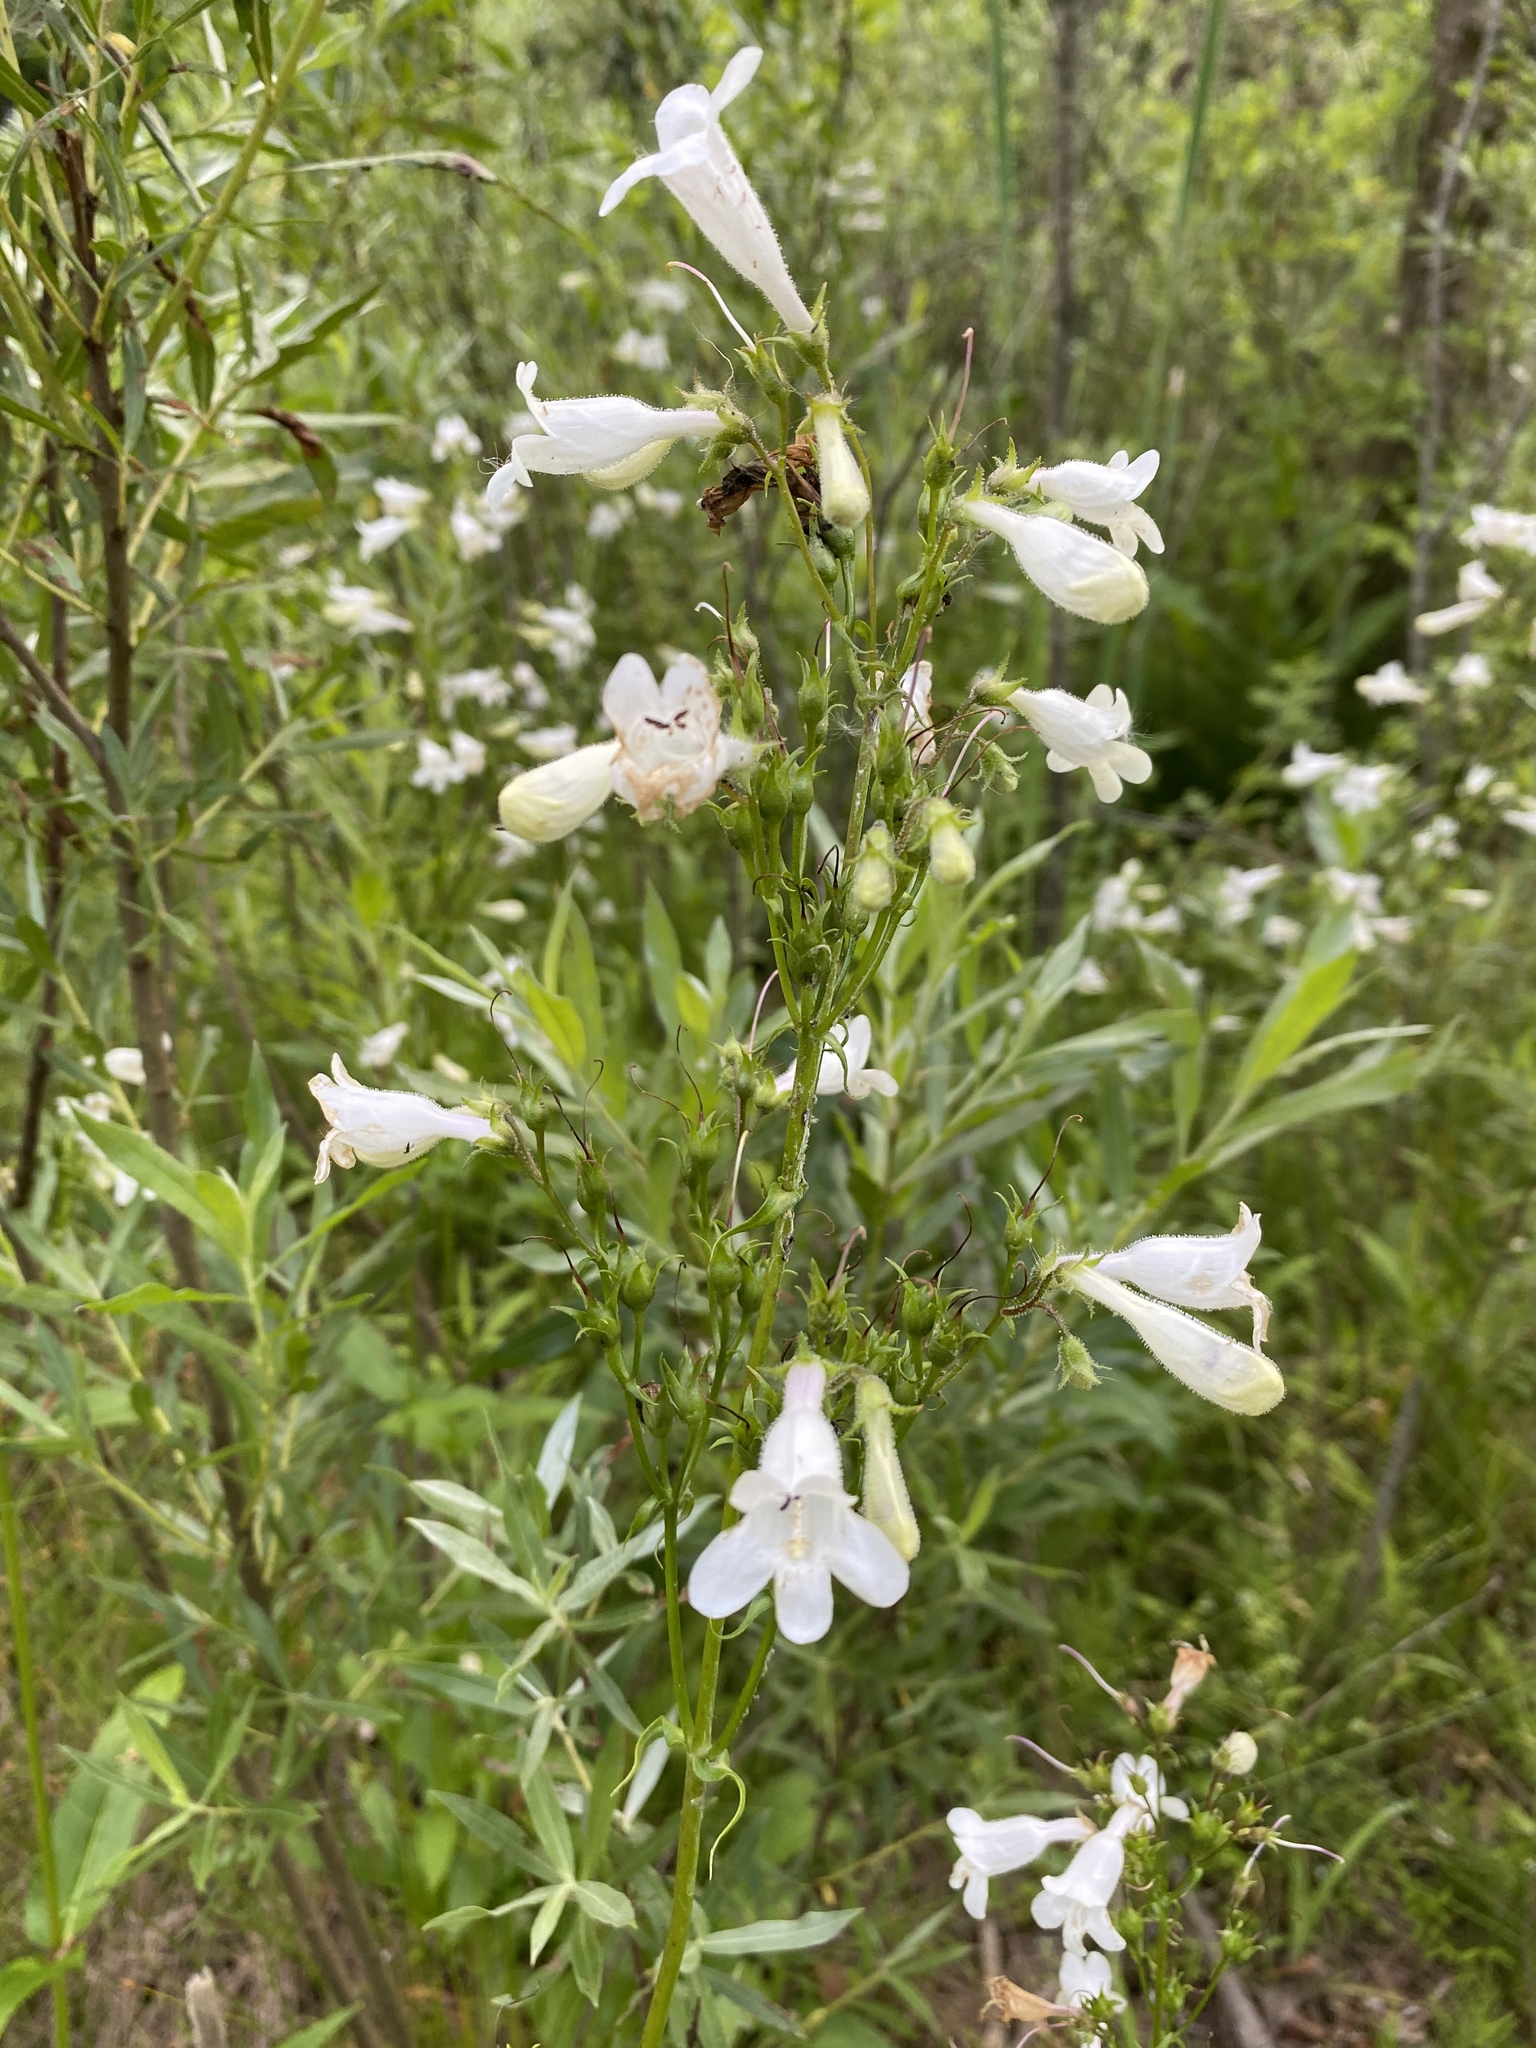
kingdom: Plantae
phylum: Tracheophyta
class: Magnoliopsida
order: Lamiales
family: Plantaginaceae
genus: Penstemon
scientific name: Penstemon digitalis
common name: Foxglove beardtongue
